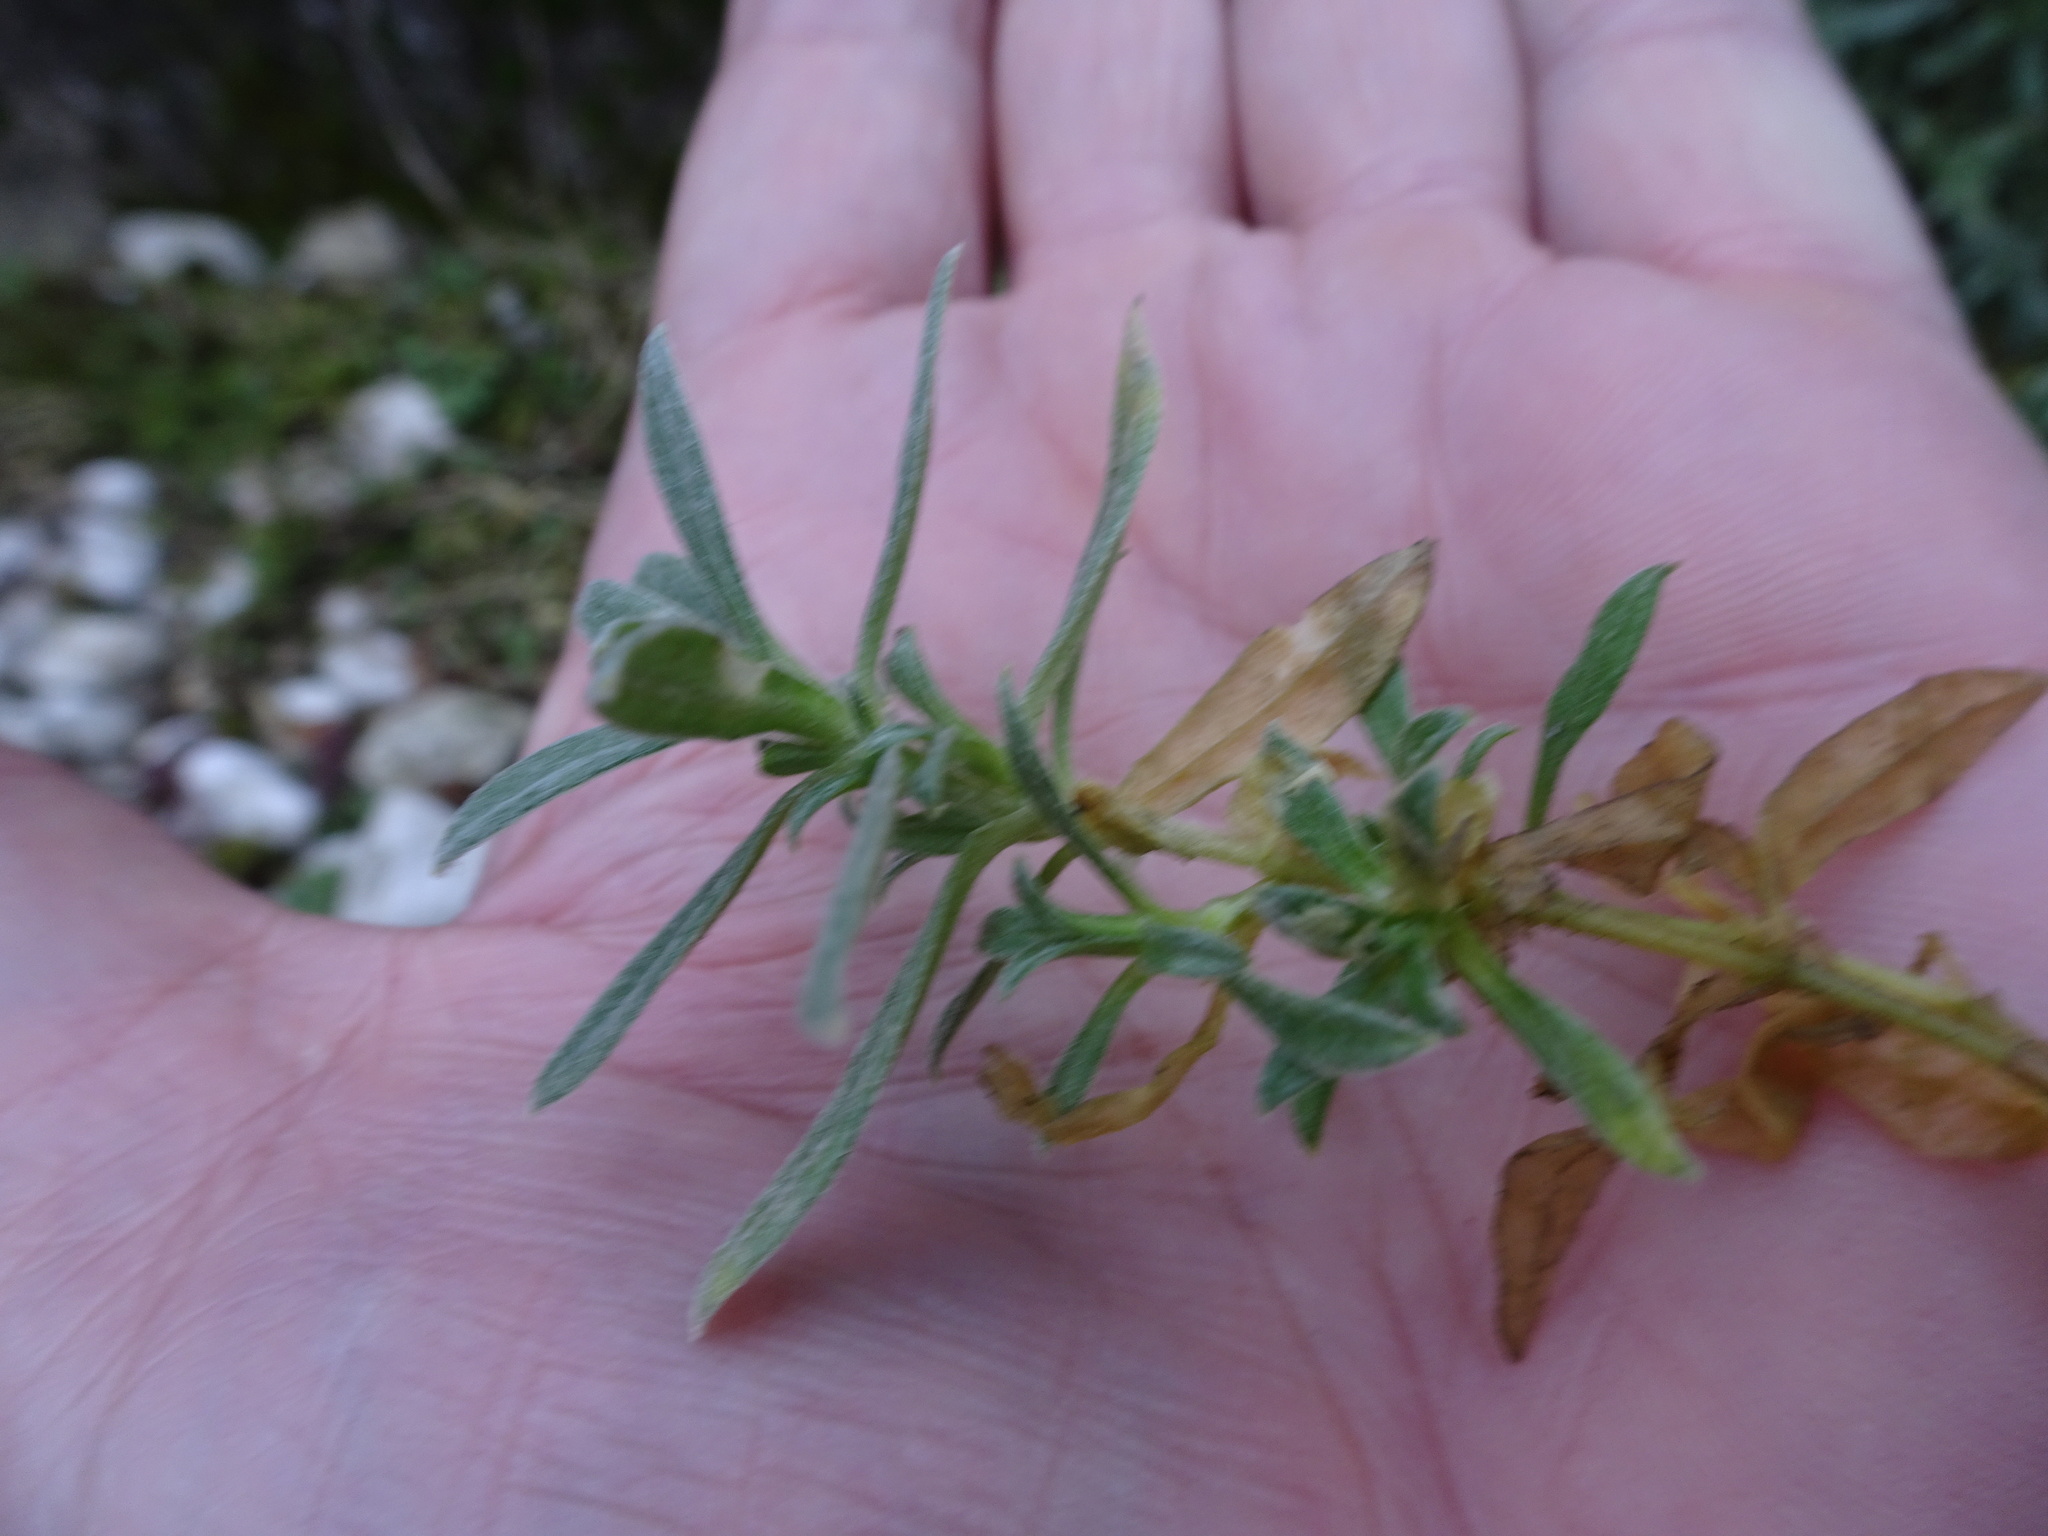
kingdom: Plantae
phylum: Tracheophyta
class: Magnoliopsida
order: Caryophyllales
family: Caryophyllaceae
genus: Cerastium
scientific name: Cerastium tomentosum
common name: Snow-in-summer
